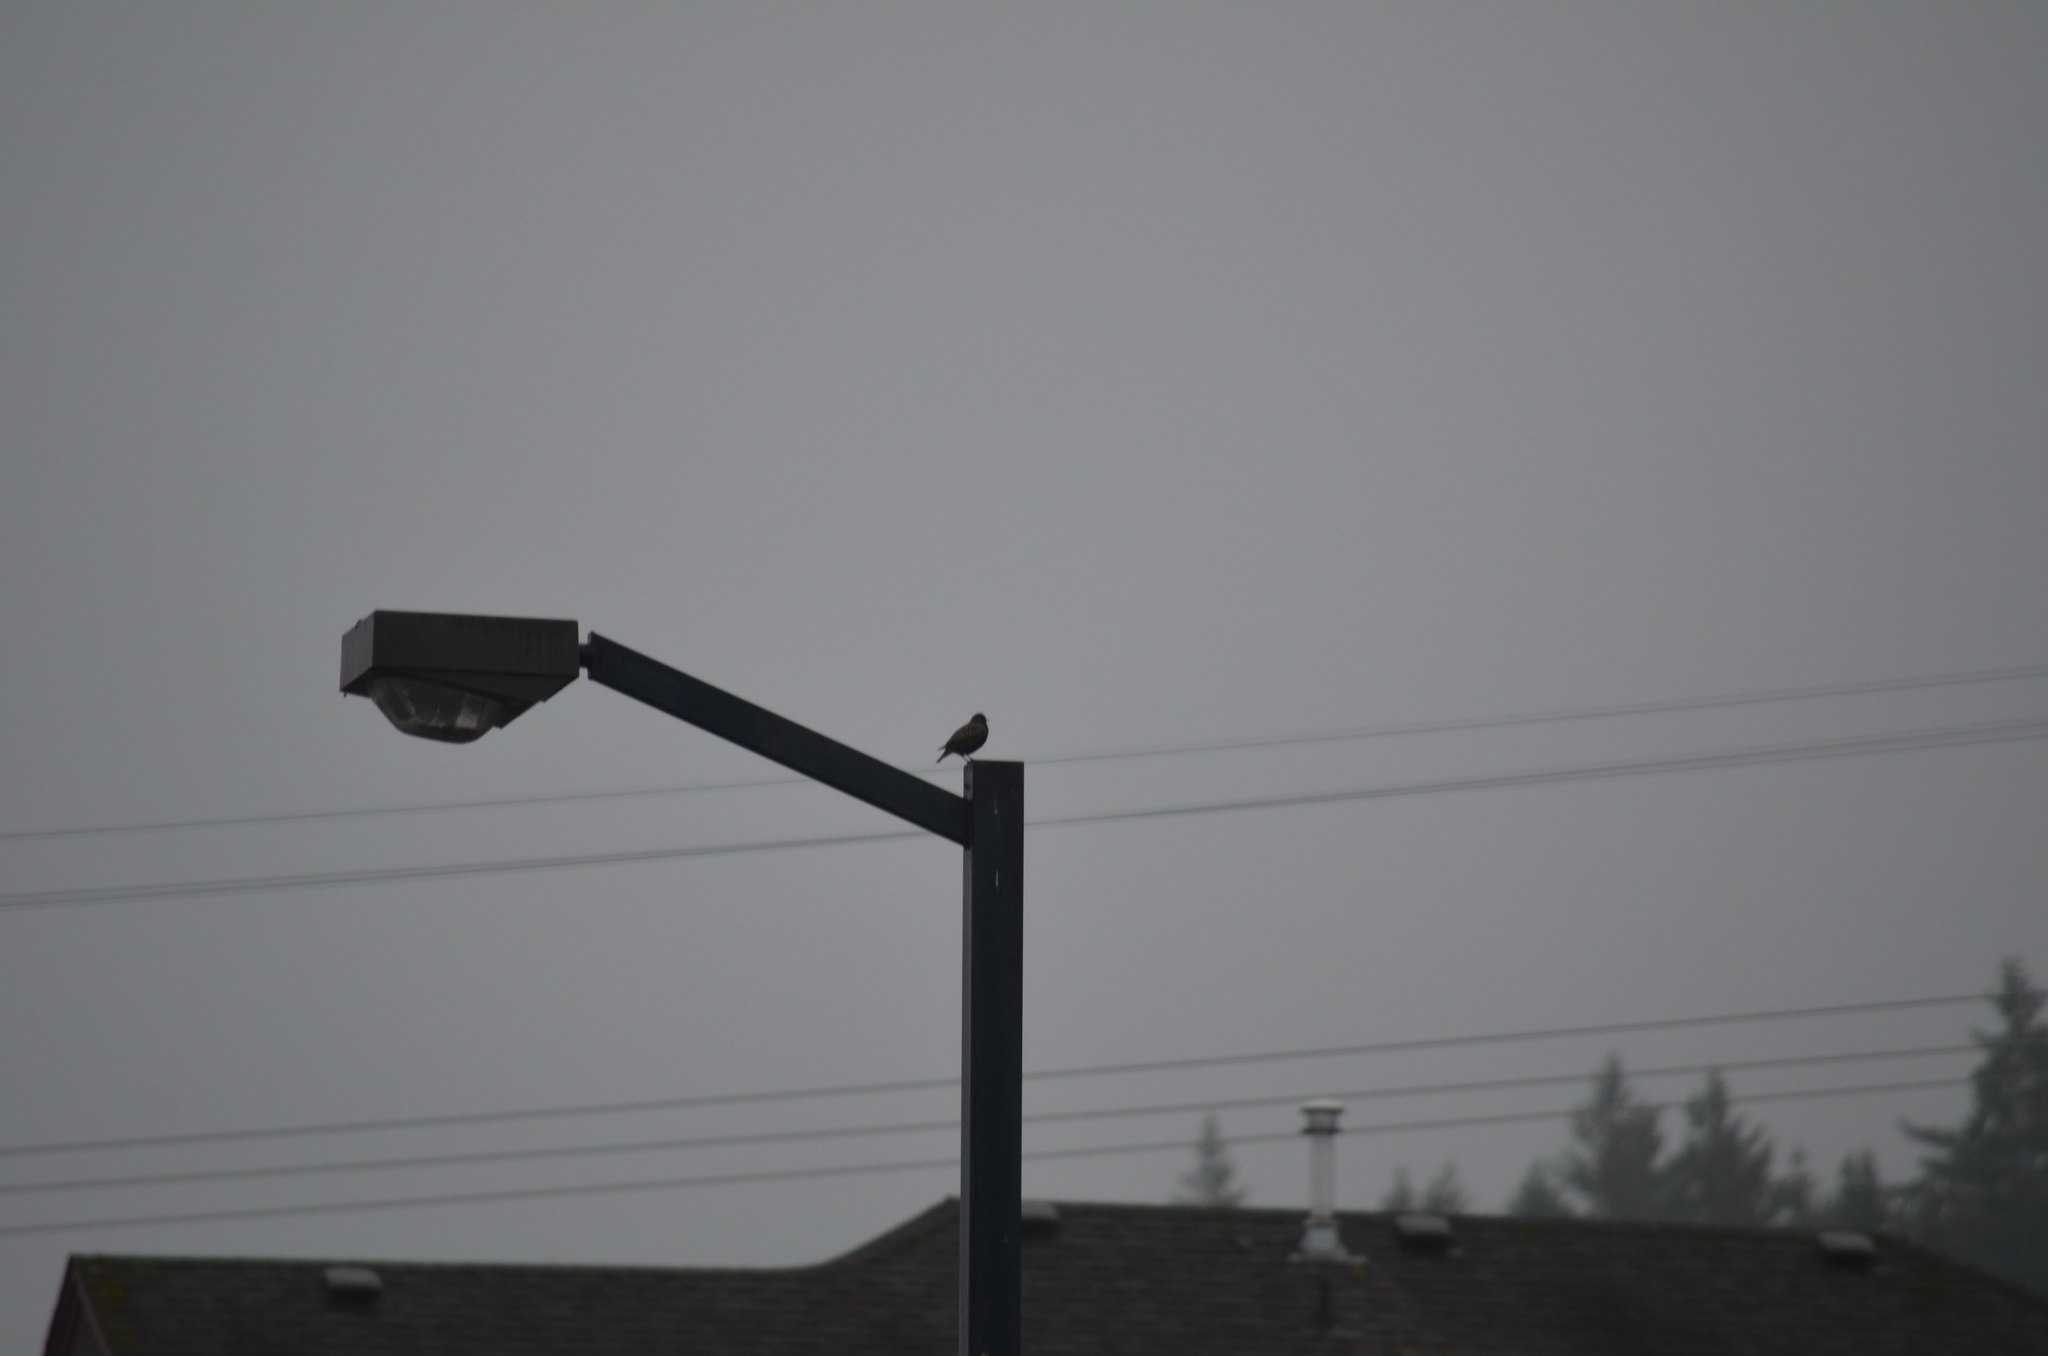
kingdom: Animalia
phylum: Chordata
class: Aves
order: Passeriformes
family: Sturnidae
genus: Sturnus
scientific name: Sturnus vulgaris
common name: Common starling
